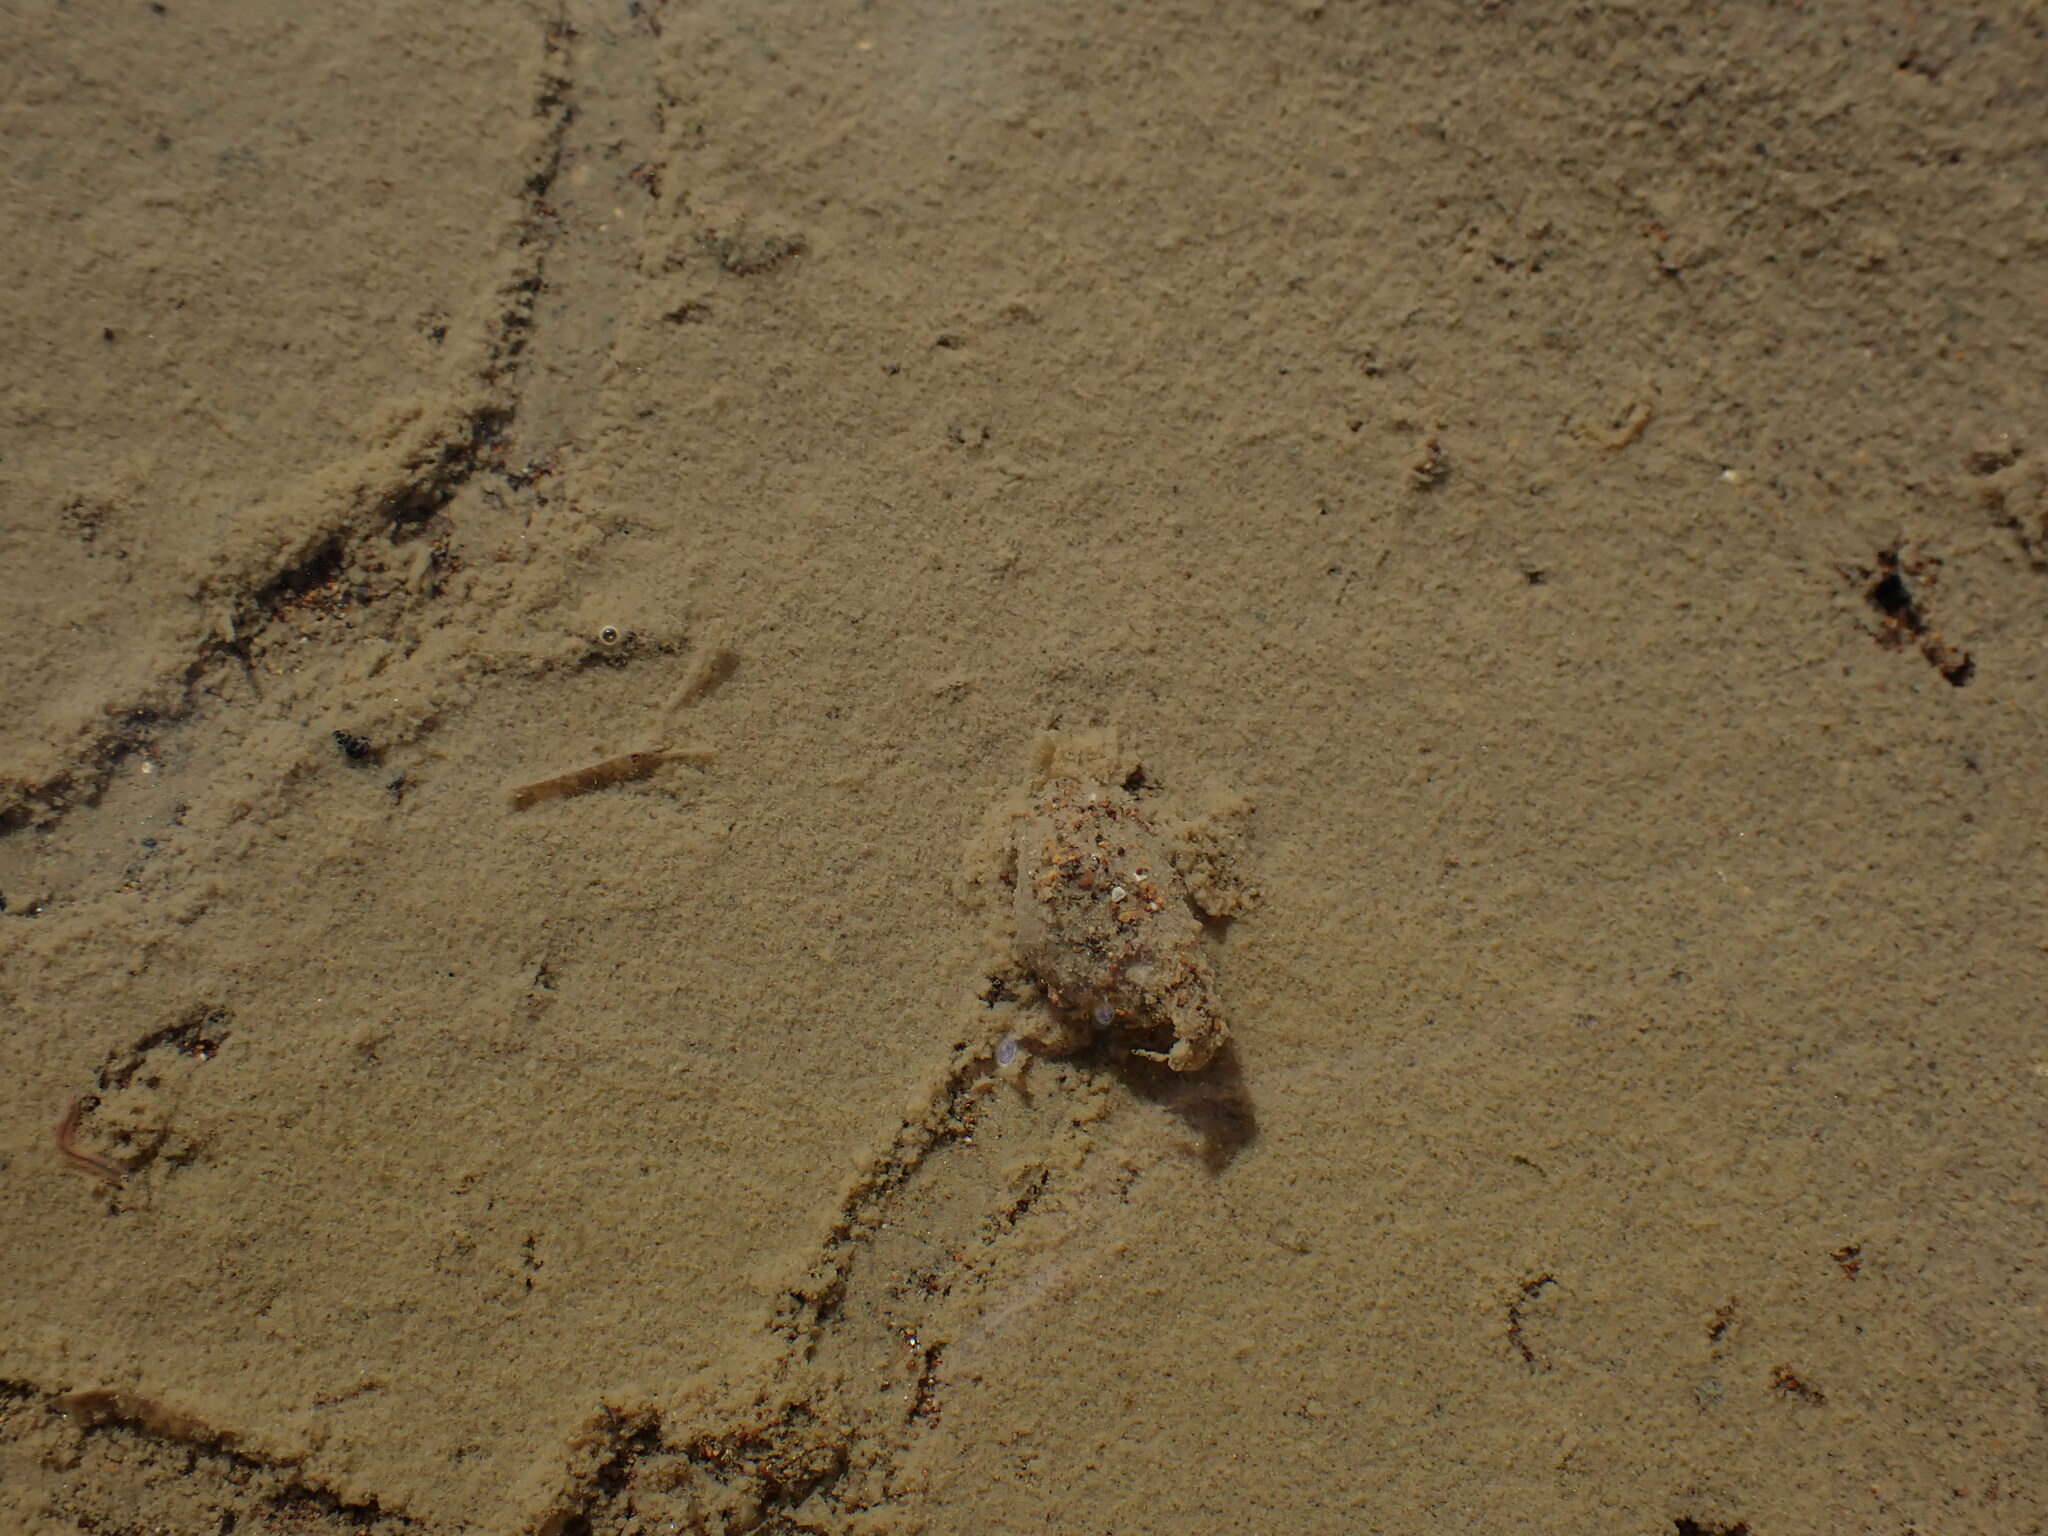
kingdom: Animalia
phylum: Mollusca
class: Gastropoda
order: Neogastropoda
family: Nassariidae
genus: Tritia
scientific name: Tritia burchardi
